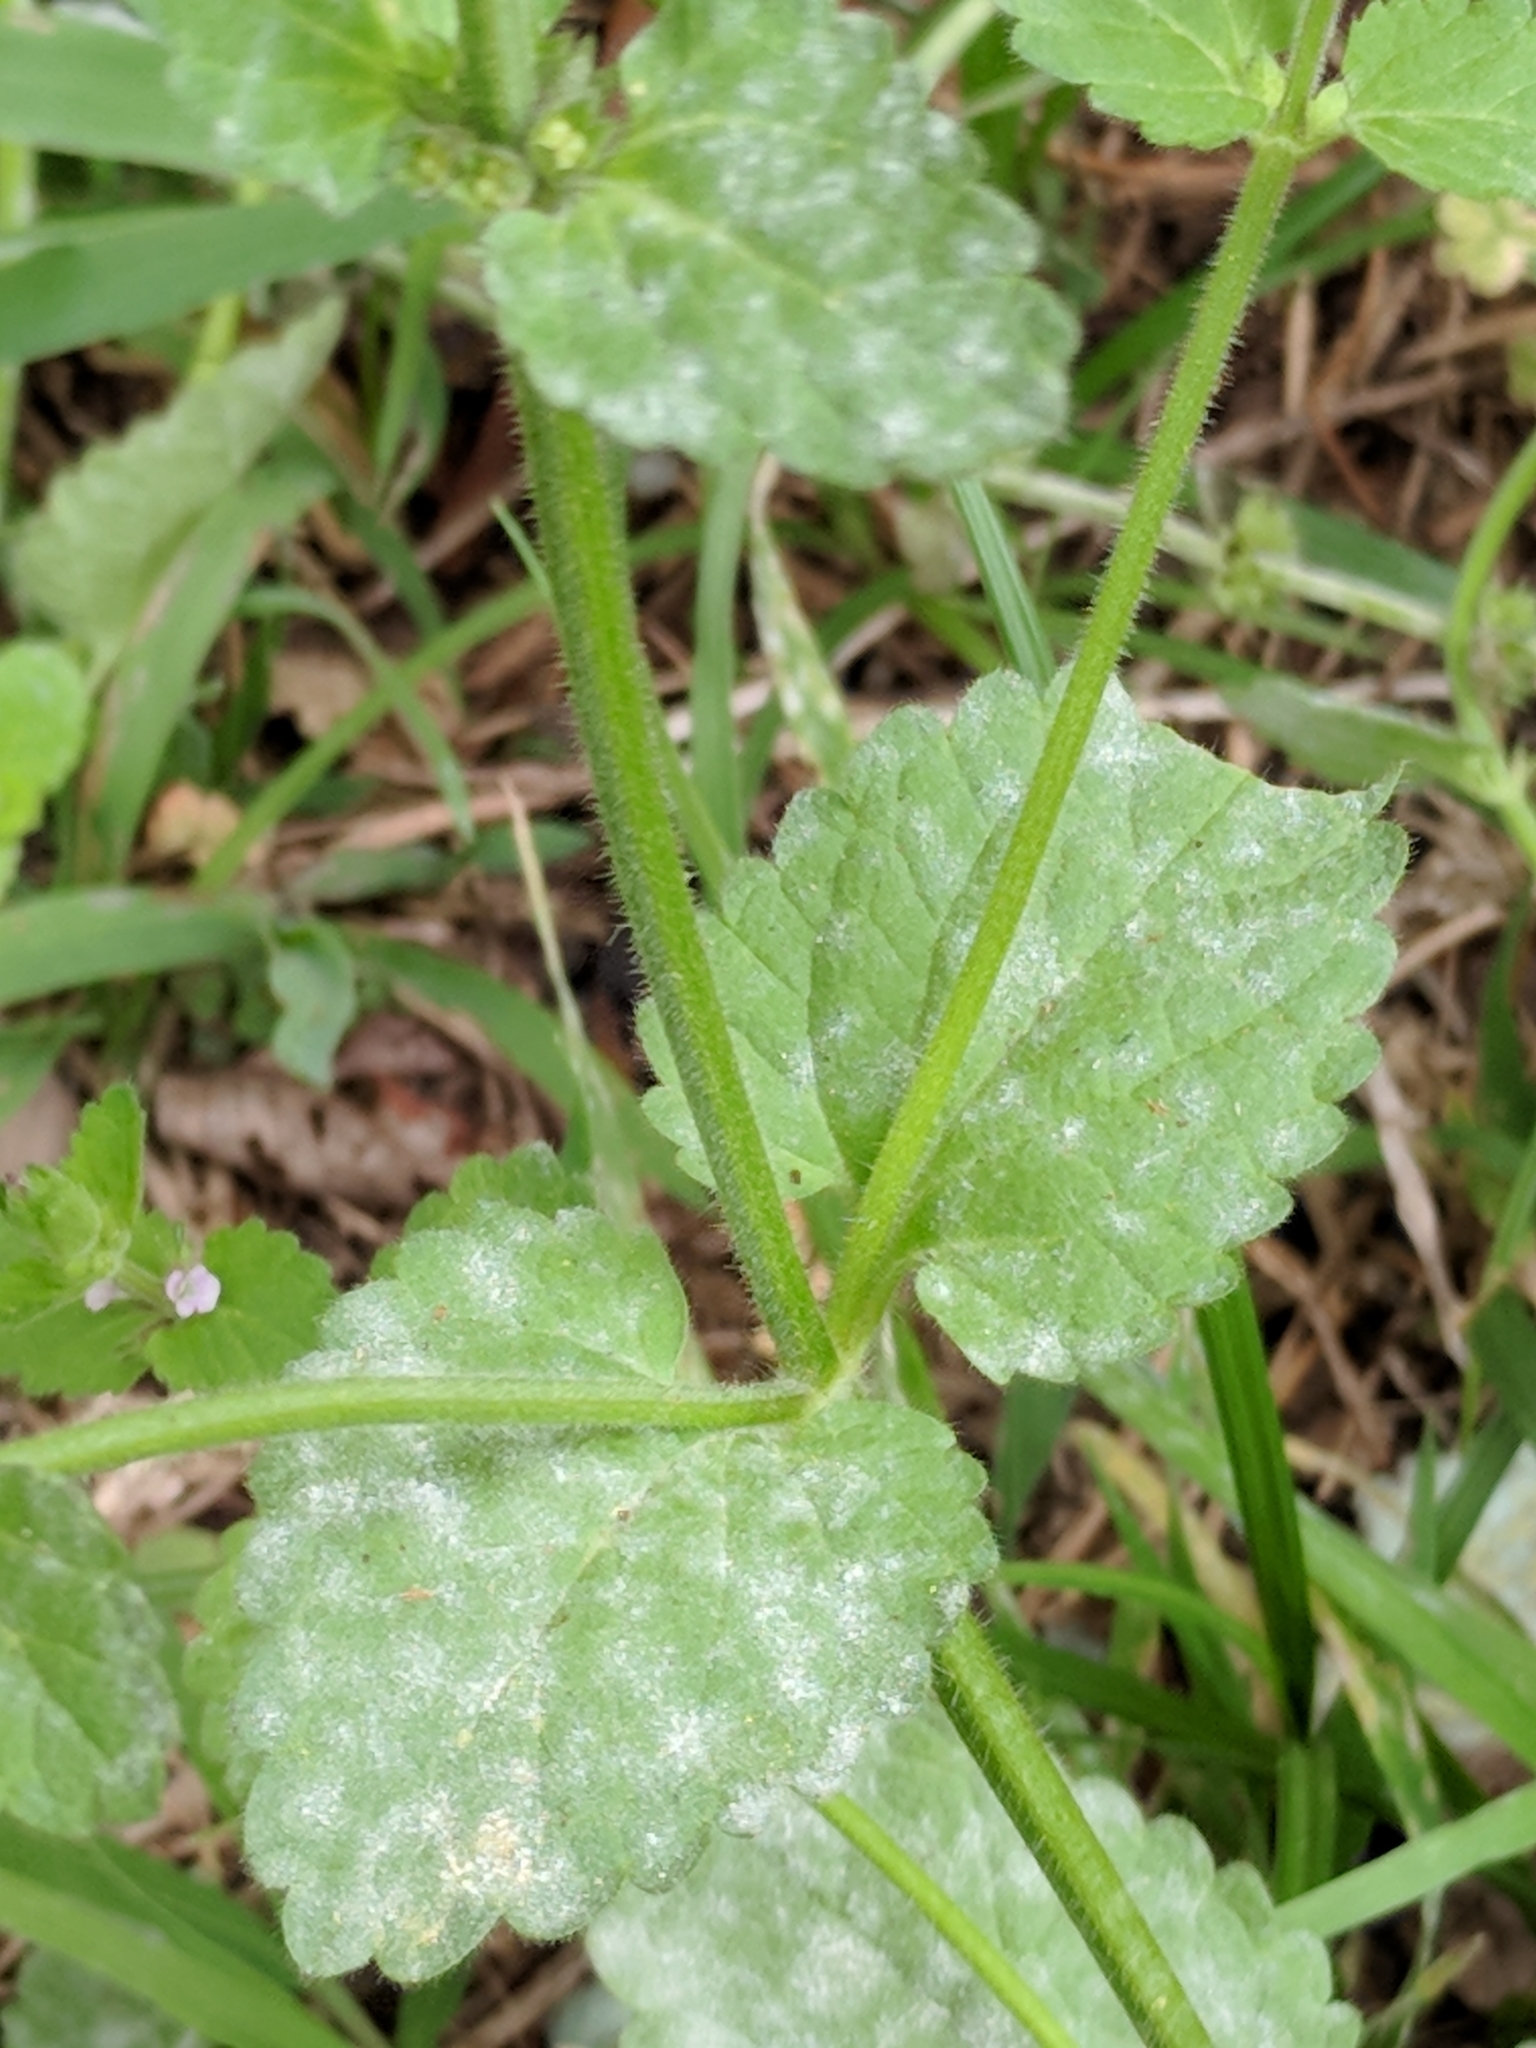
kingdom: Plantae
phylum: Tracheophyta
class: Magnoliopsida
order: Lamiales
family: Lamiaceae
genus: Stachys
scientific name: Stachys
